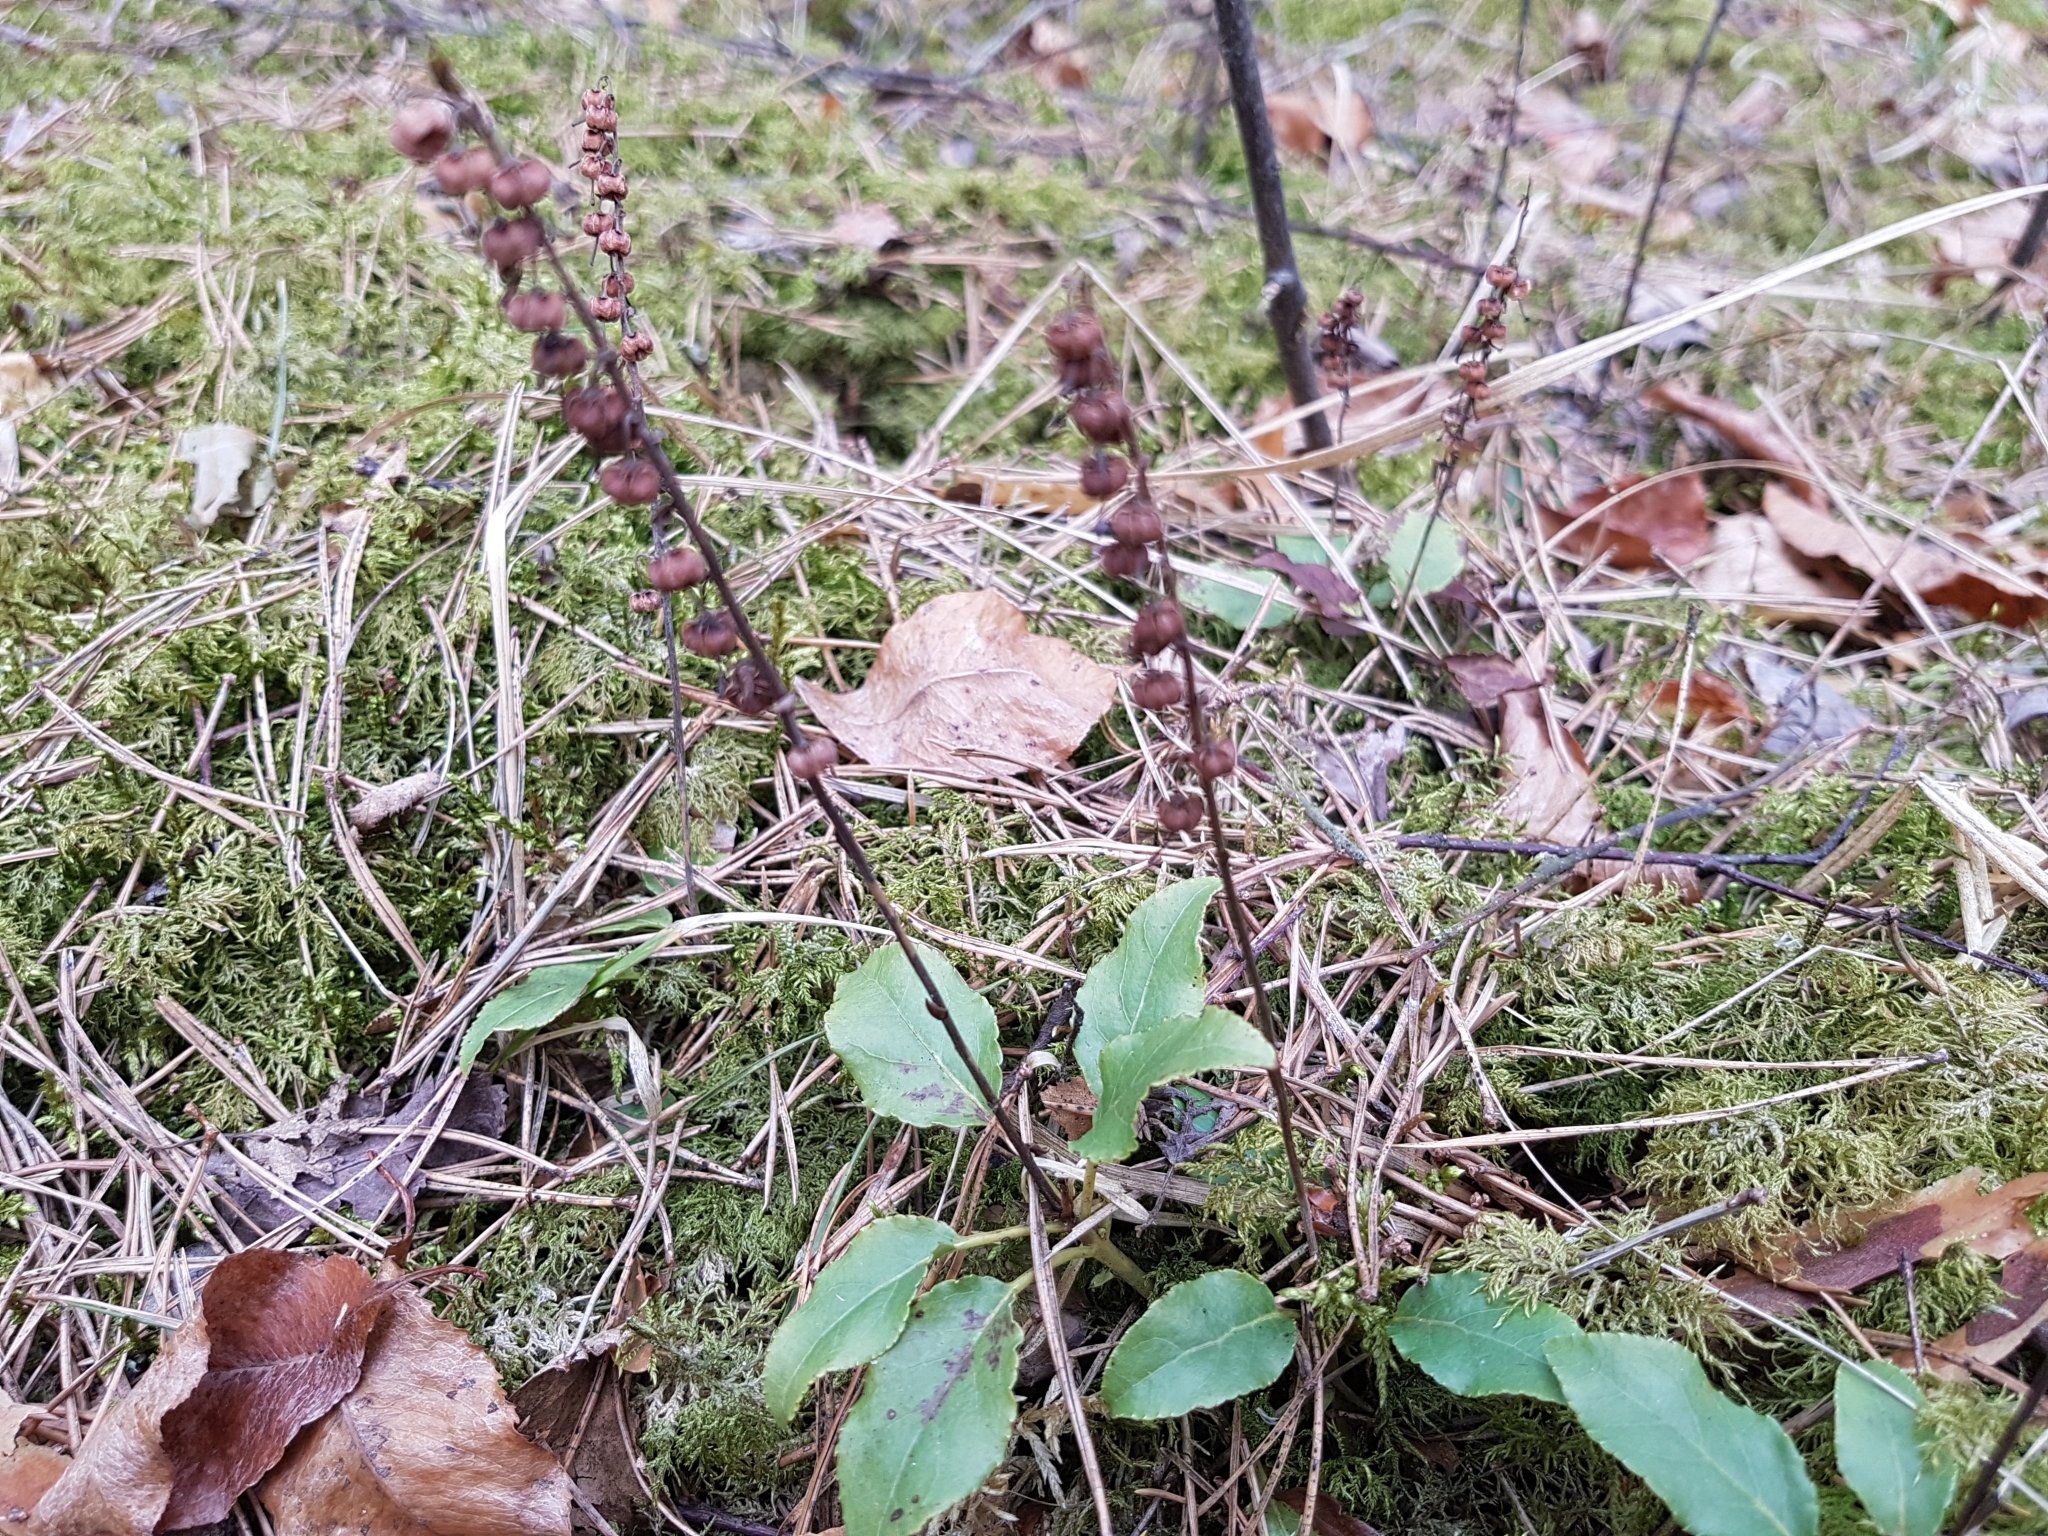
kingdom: Plantae
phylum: Tracheophyta
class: Magnoliopsida
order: Ericales
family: Ericaceae
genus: Orthilia
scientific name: Orthilia secunda
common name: One-sided orthilia
